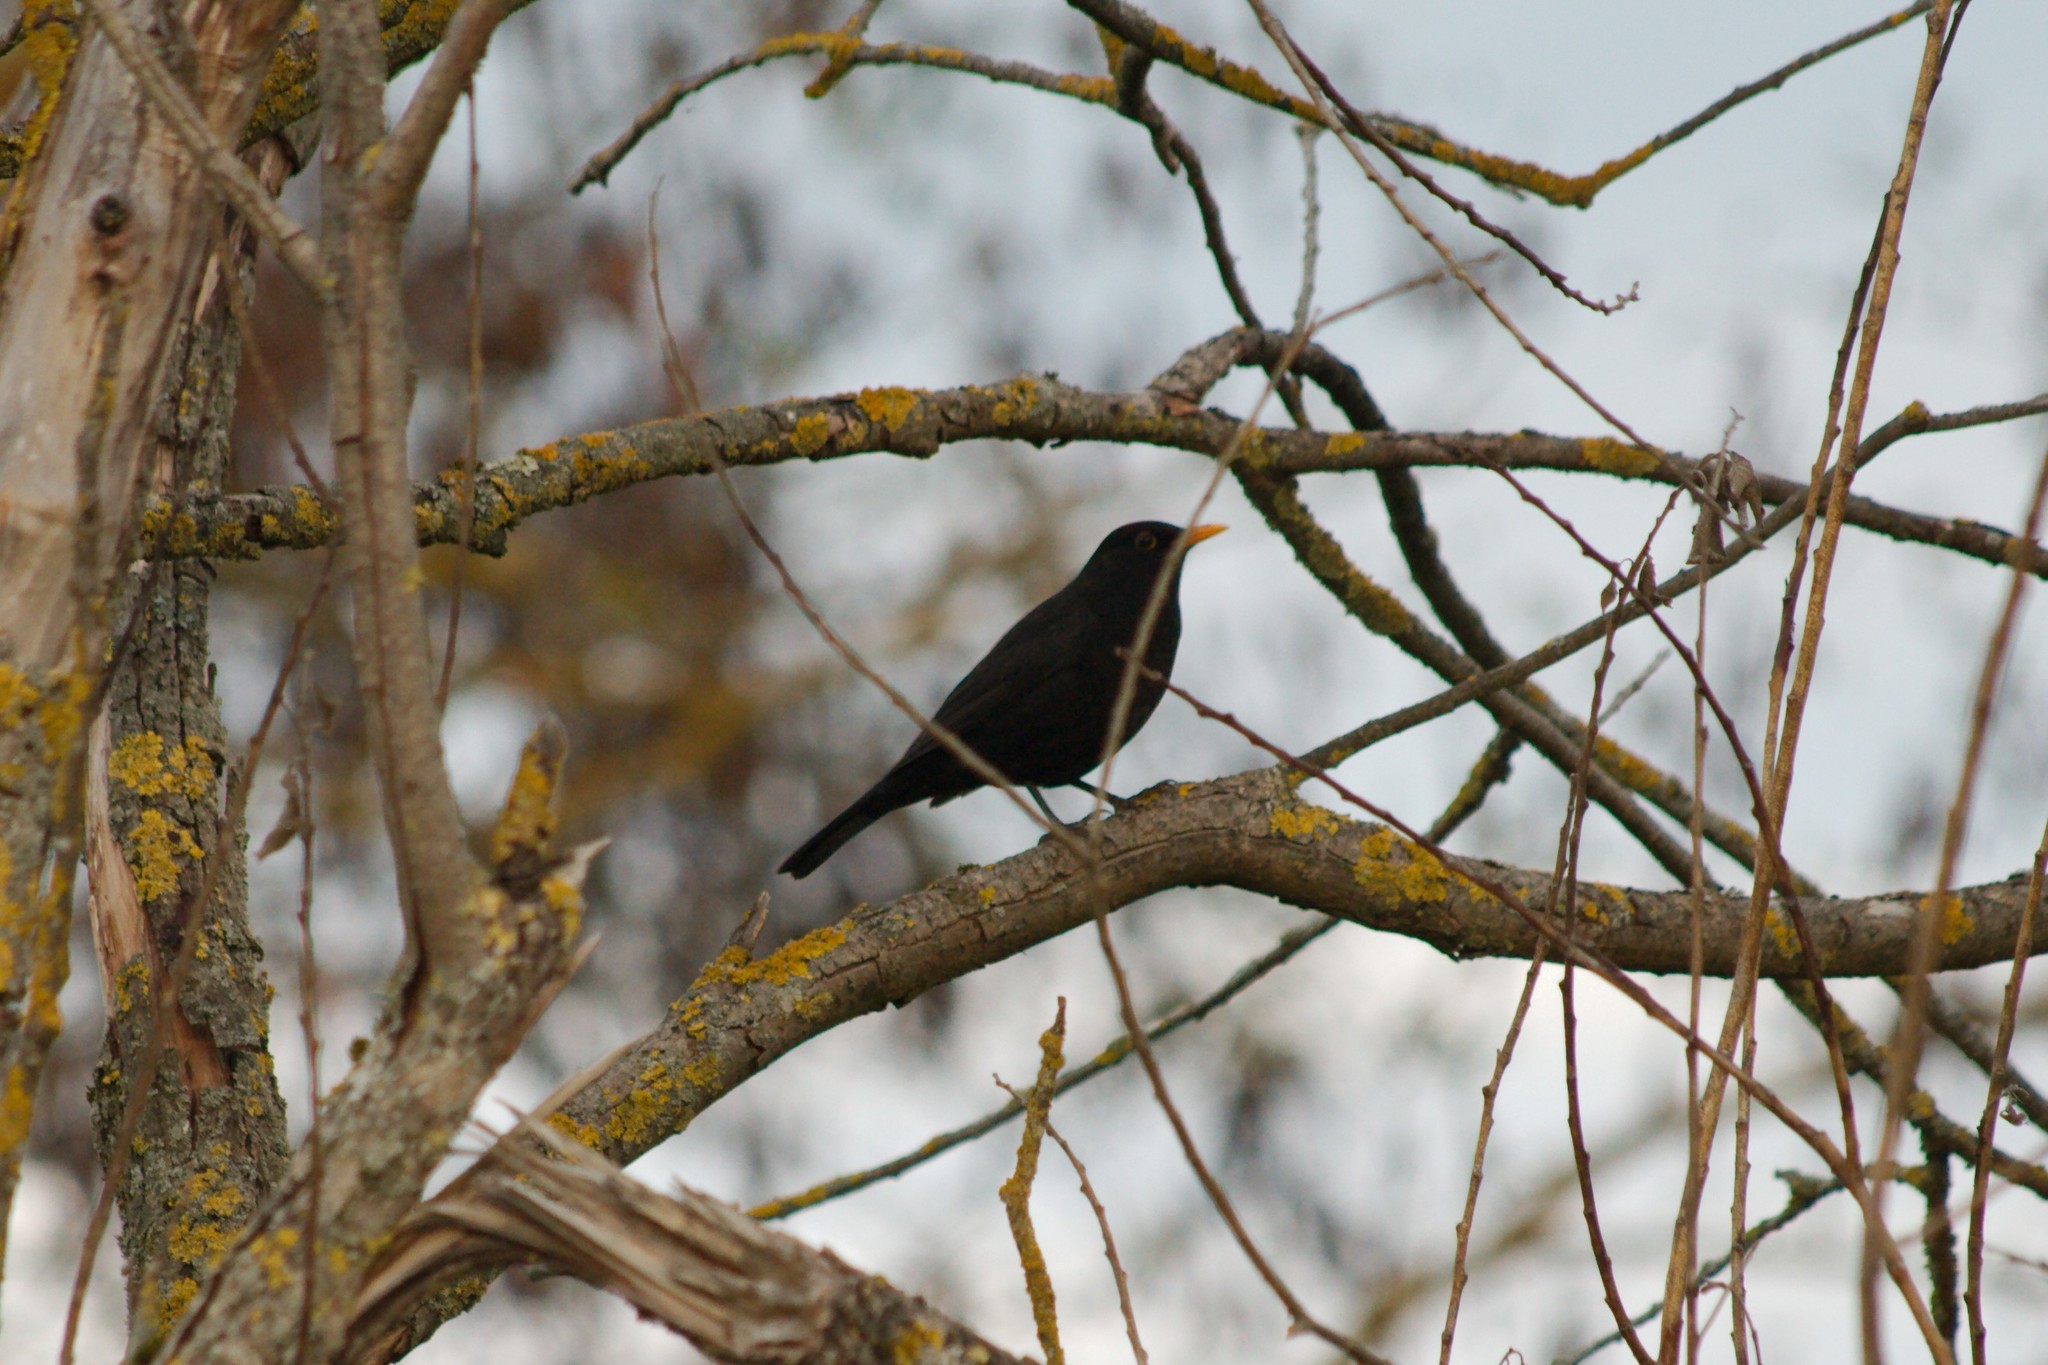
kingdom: Animalia
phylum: Chordata
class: Aves
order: Passeriformes
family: Turdidae
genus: Turdus
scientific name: Turdus merula
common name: Common blackbird
